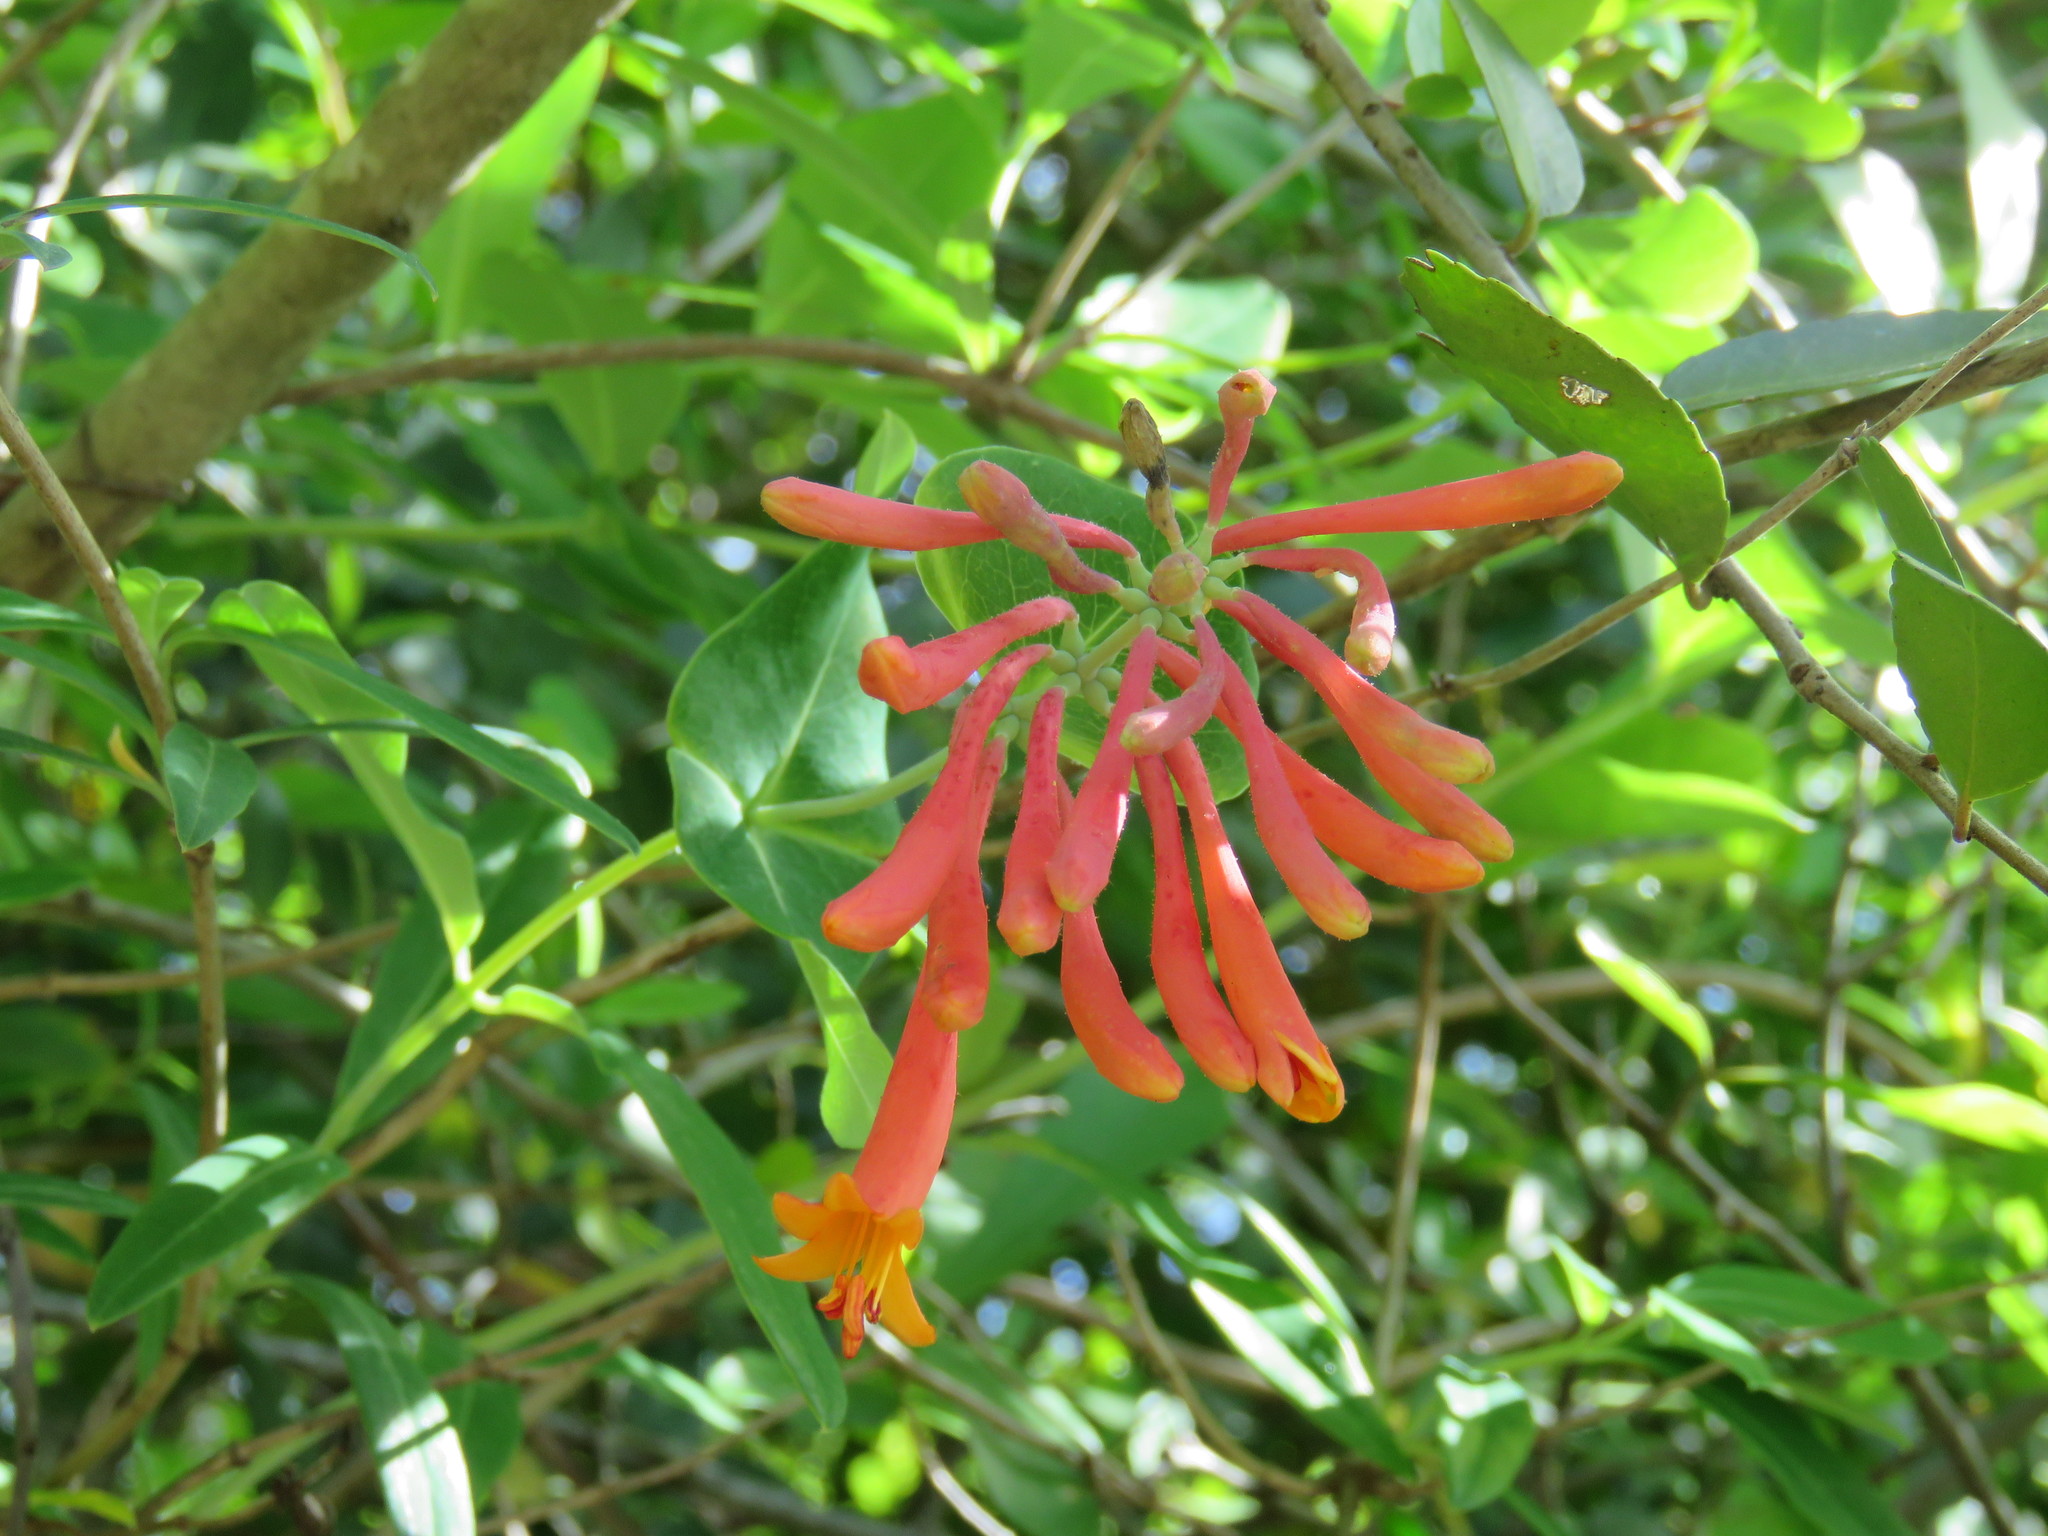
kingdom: Plantae
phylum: Tracheophyta
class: Magnoliopsida
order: Dipsacales
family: Caprifoliaceae
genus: Lonicera
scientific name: Lonicera sempervirens
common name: Coral honeysuckle
